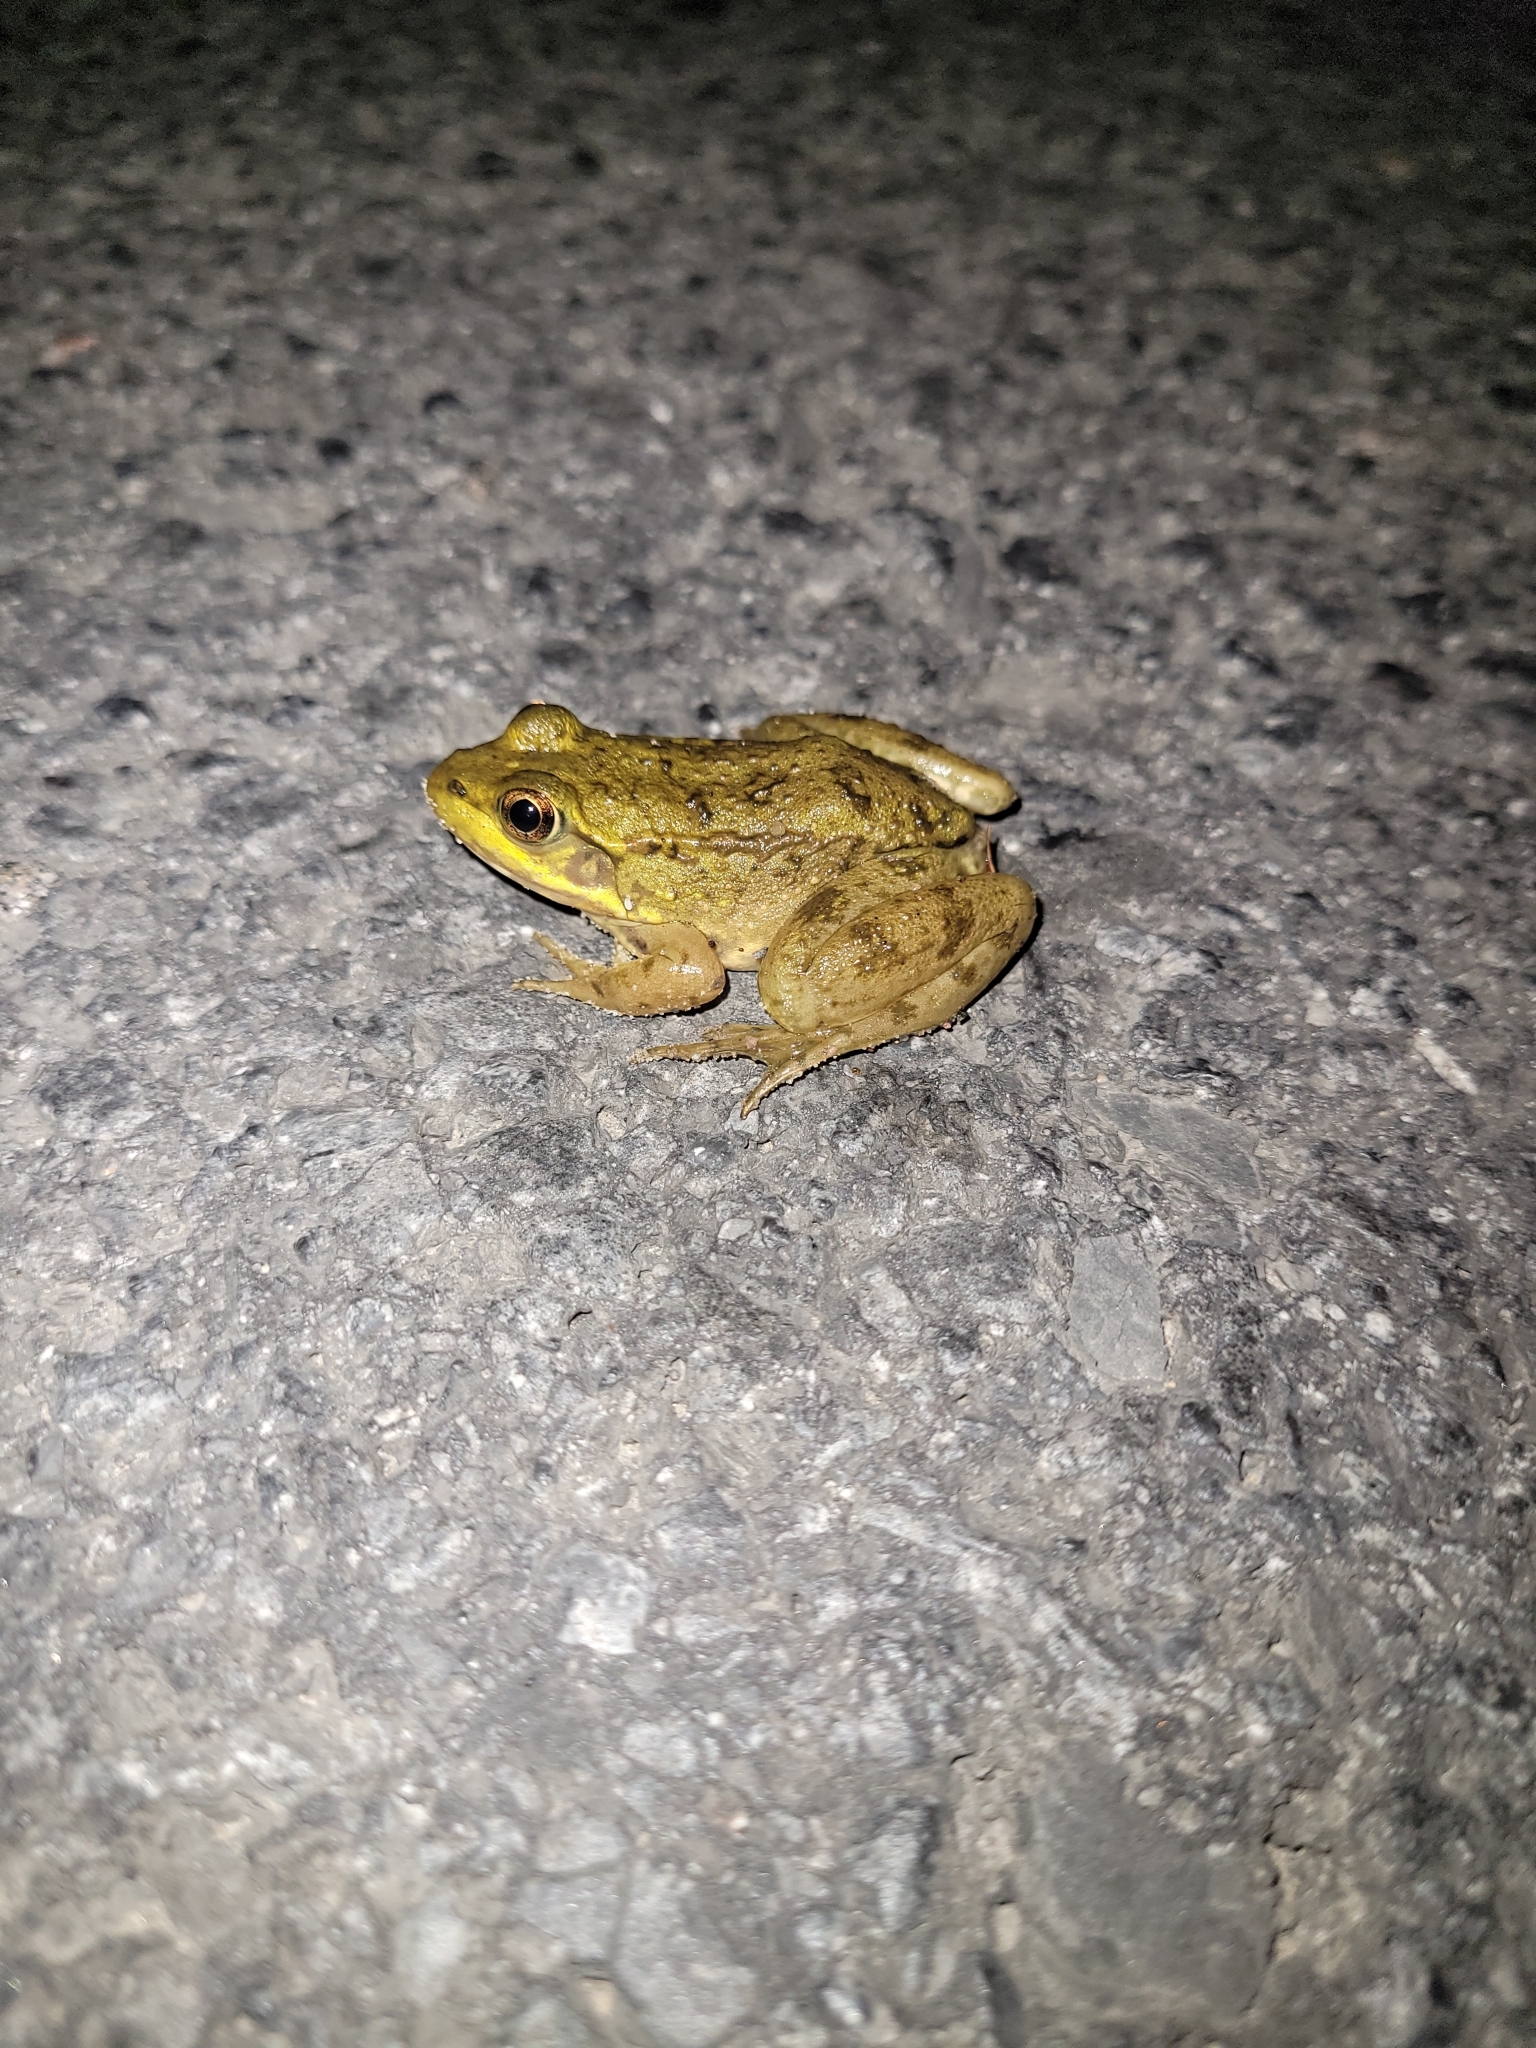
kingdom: Animalia
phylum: Chordata
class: Amphibia
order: Anura
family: Ranidae
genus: Lithobates
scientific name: Lithobates clamitans
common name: Green frog
